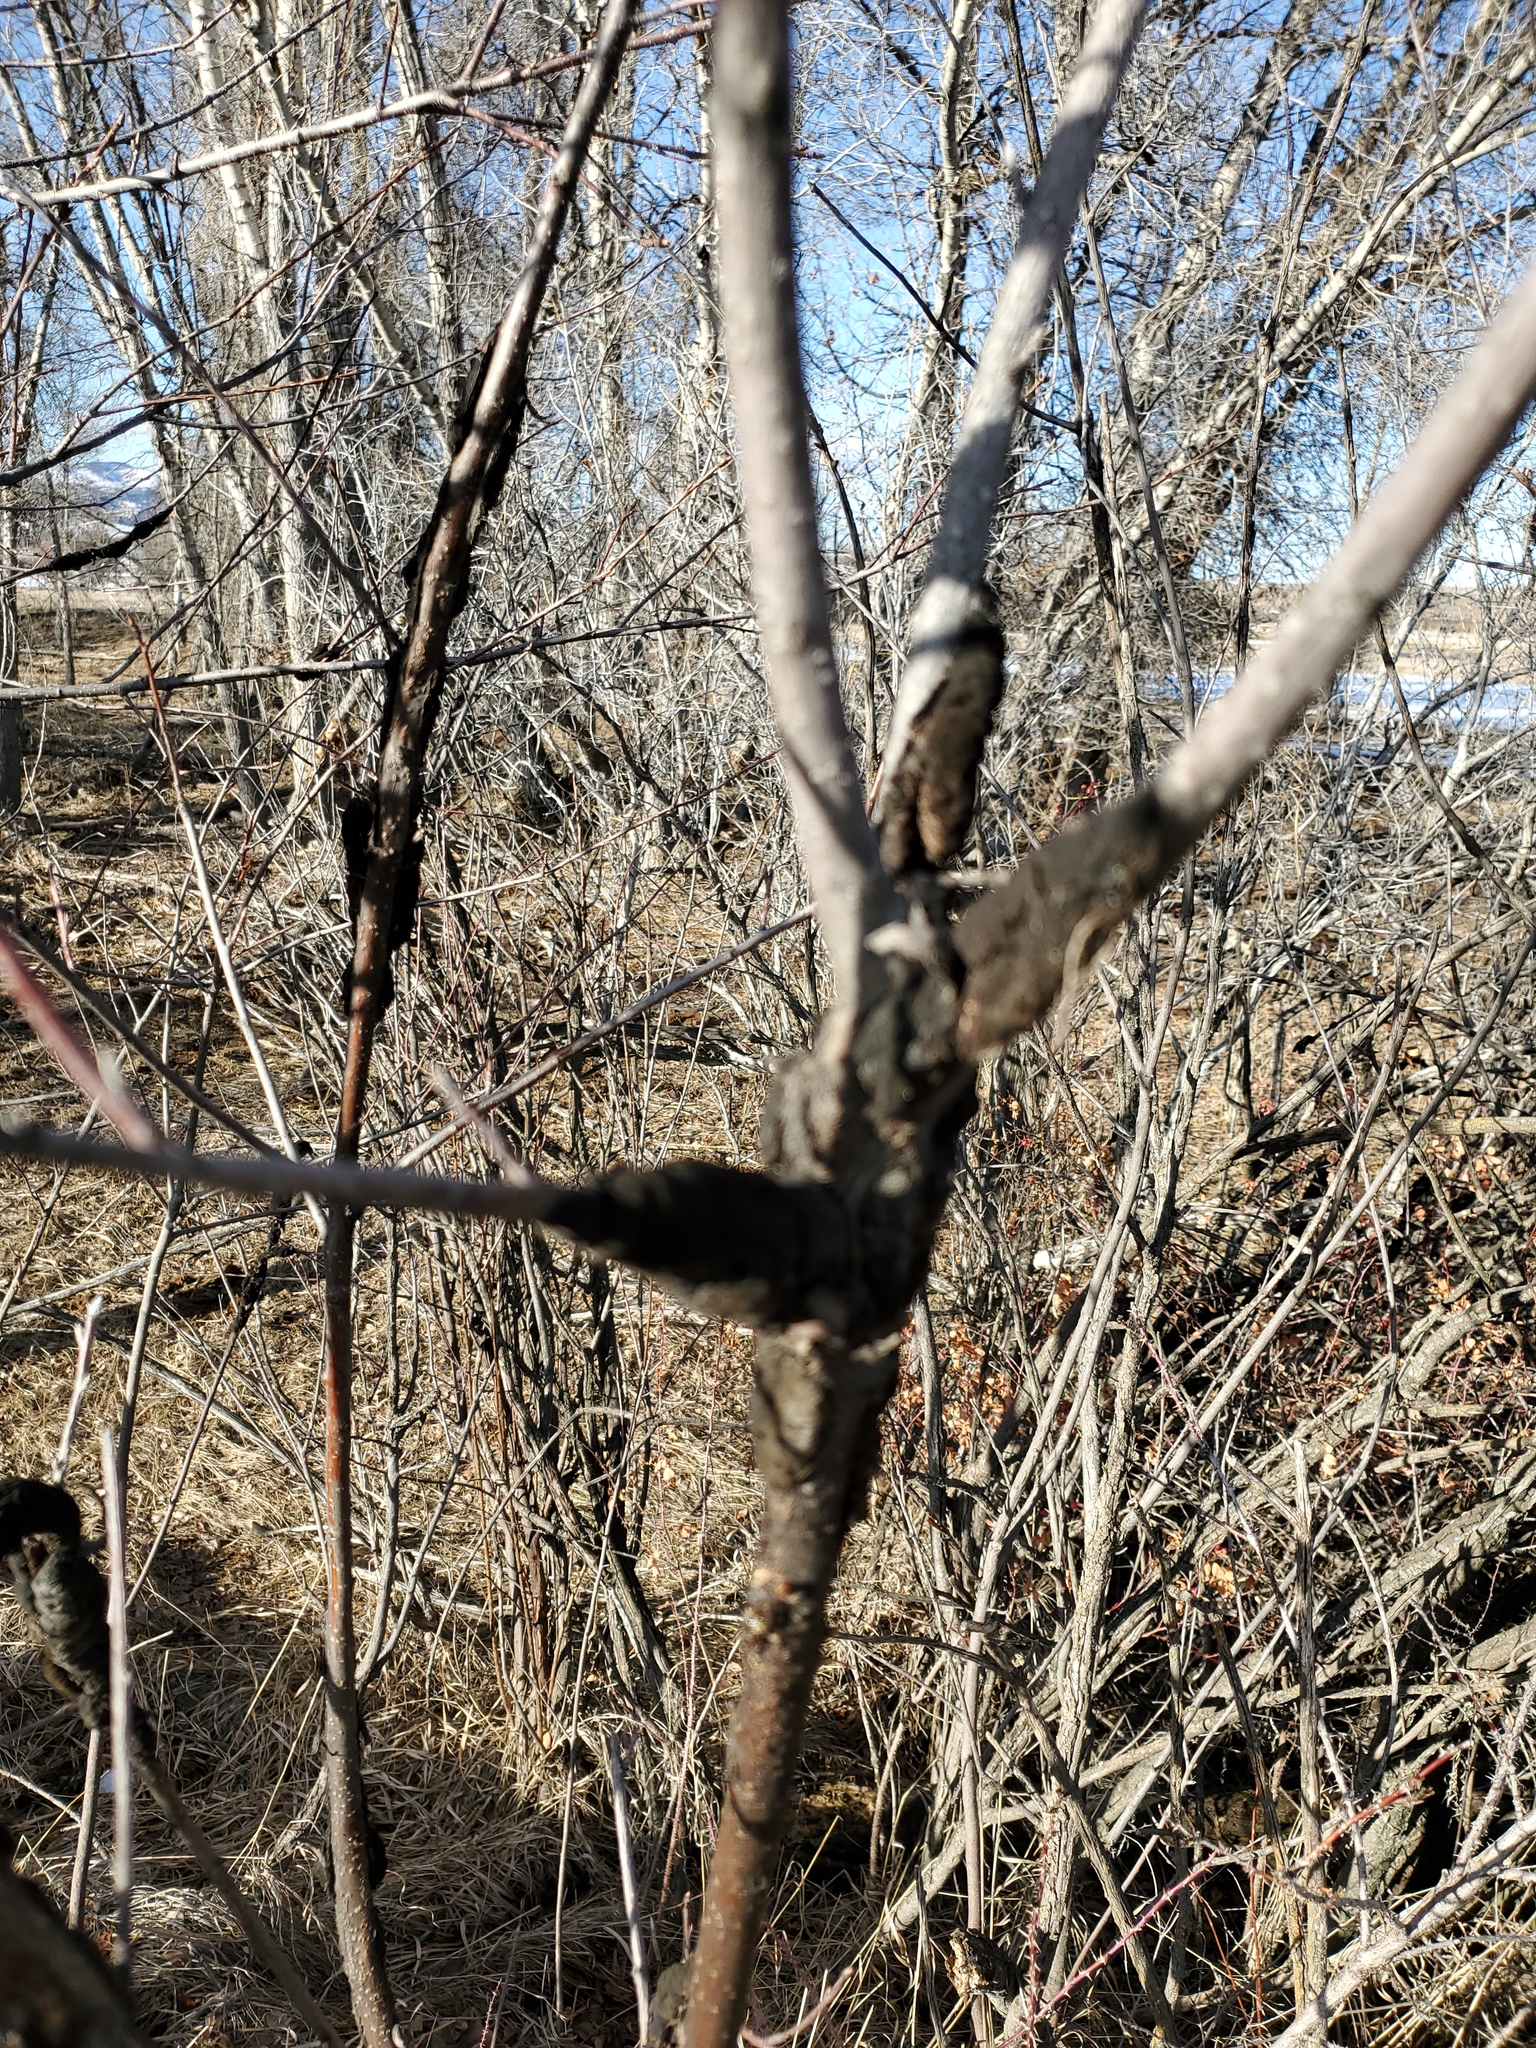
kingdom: Fungi
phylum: Ascomycota
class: Dothideomycetes
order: Venturiales
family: Venturiaceae
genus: Apiosporina
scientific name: Apiosporina morbosa
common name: Black knot
